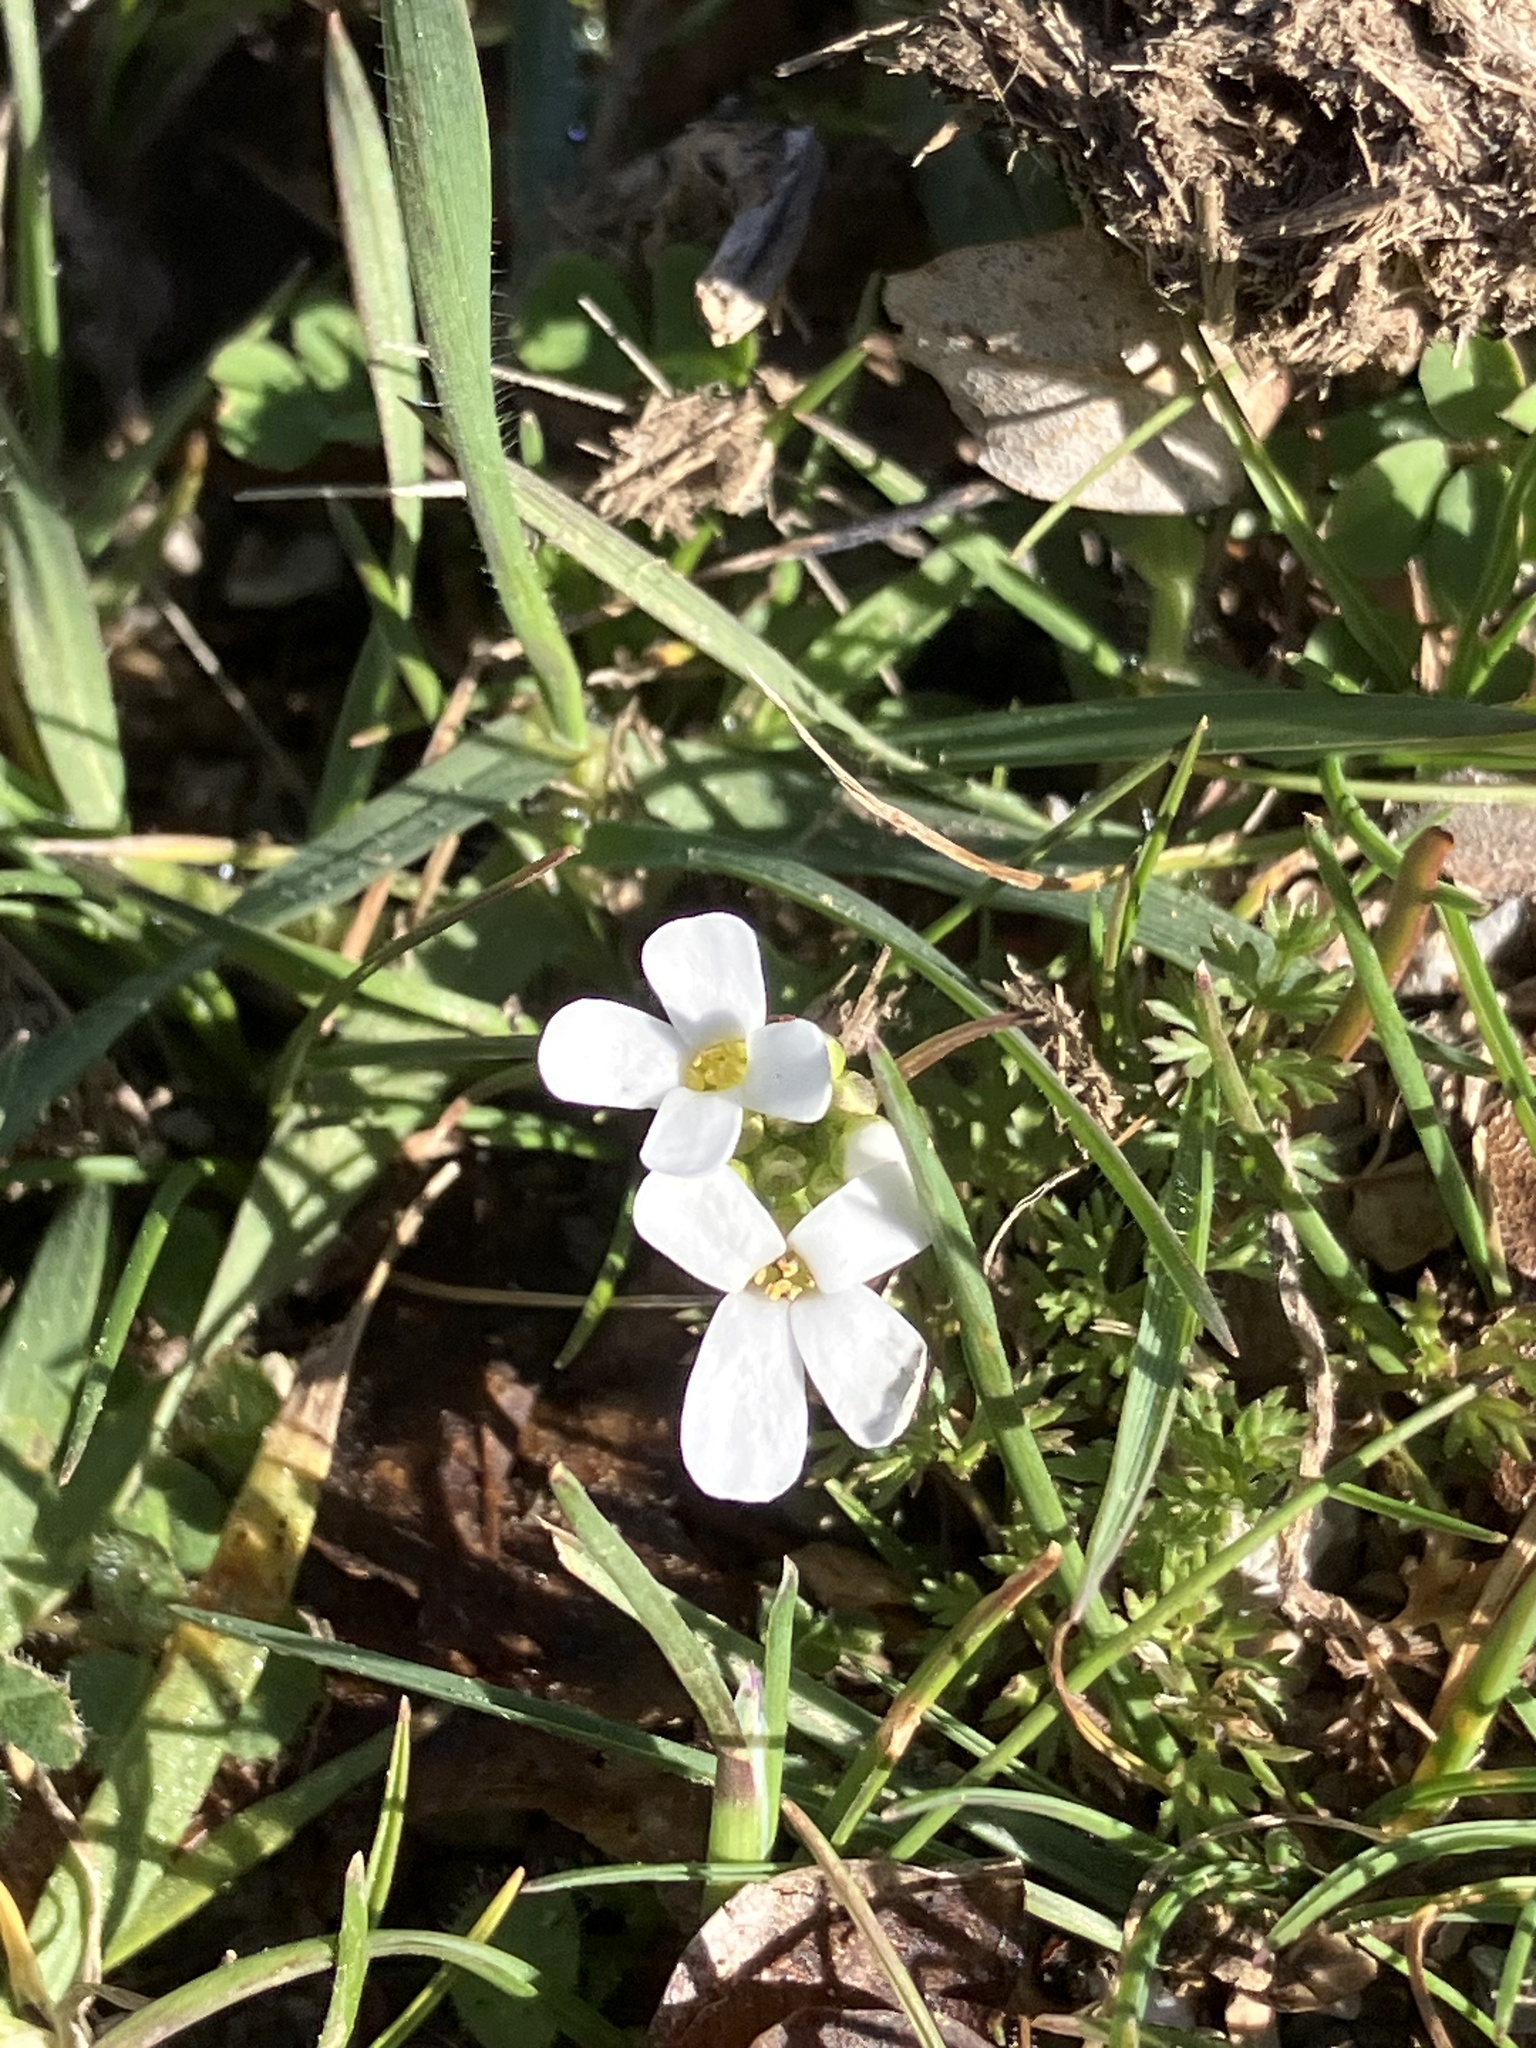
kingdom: Plantae
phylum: Tracheophyta
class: Magnoliopsida
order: Brassicales
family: Brassicaceae
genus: Diplotaxis
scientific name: Diplotaxis erucoides
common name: White rocket
